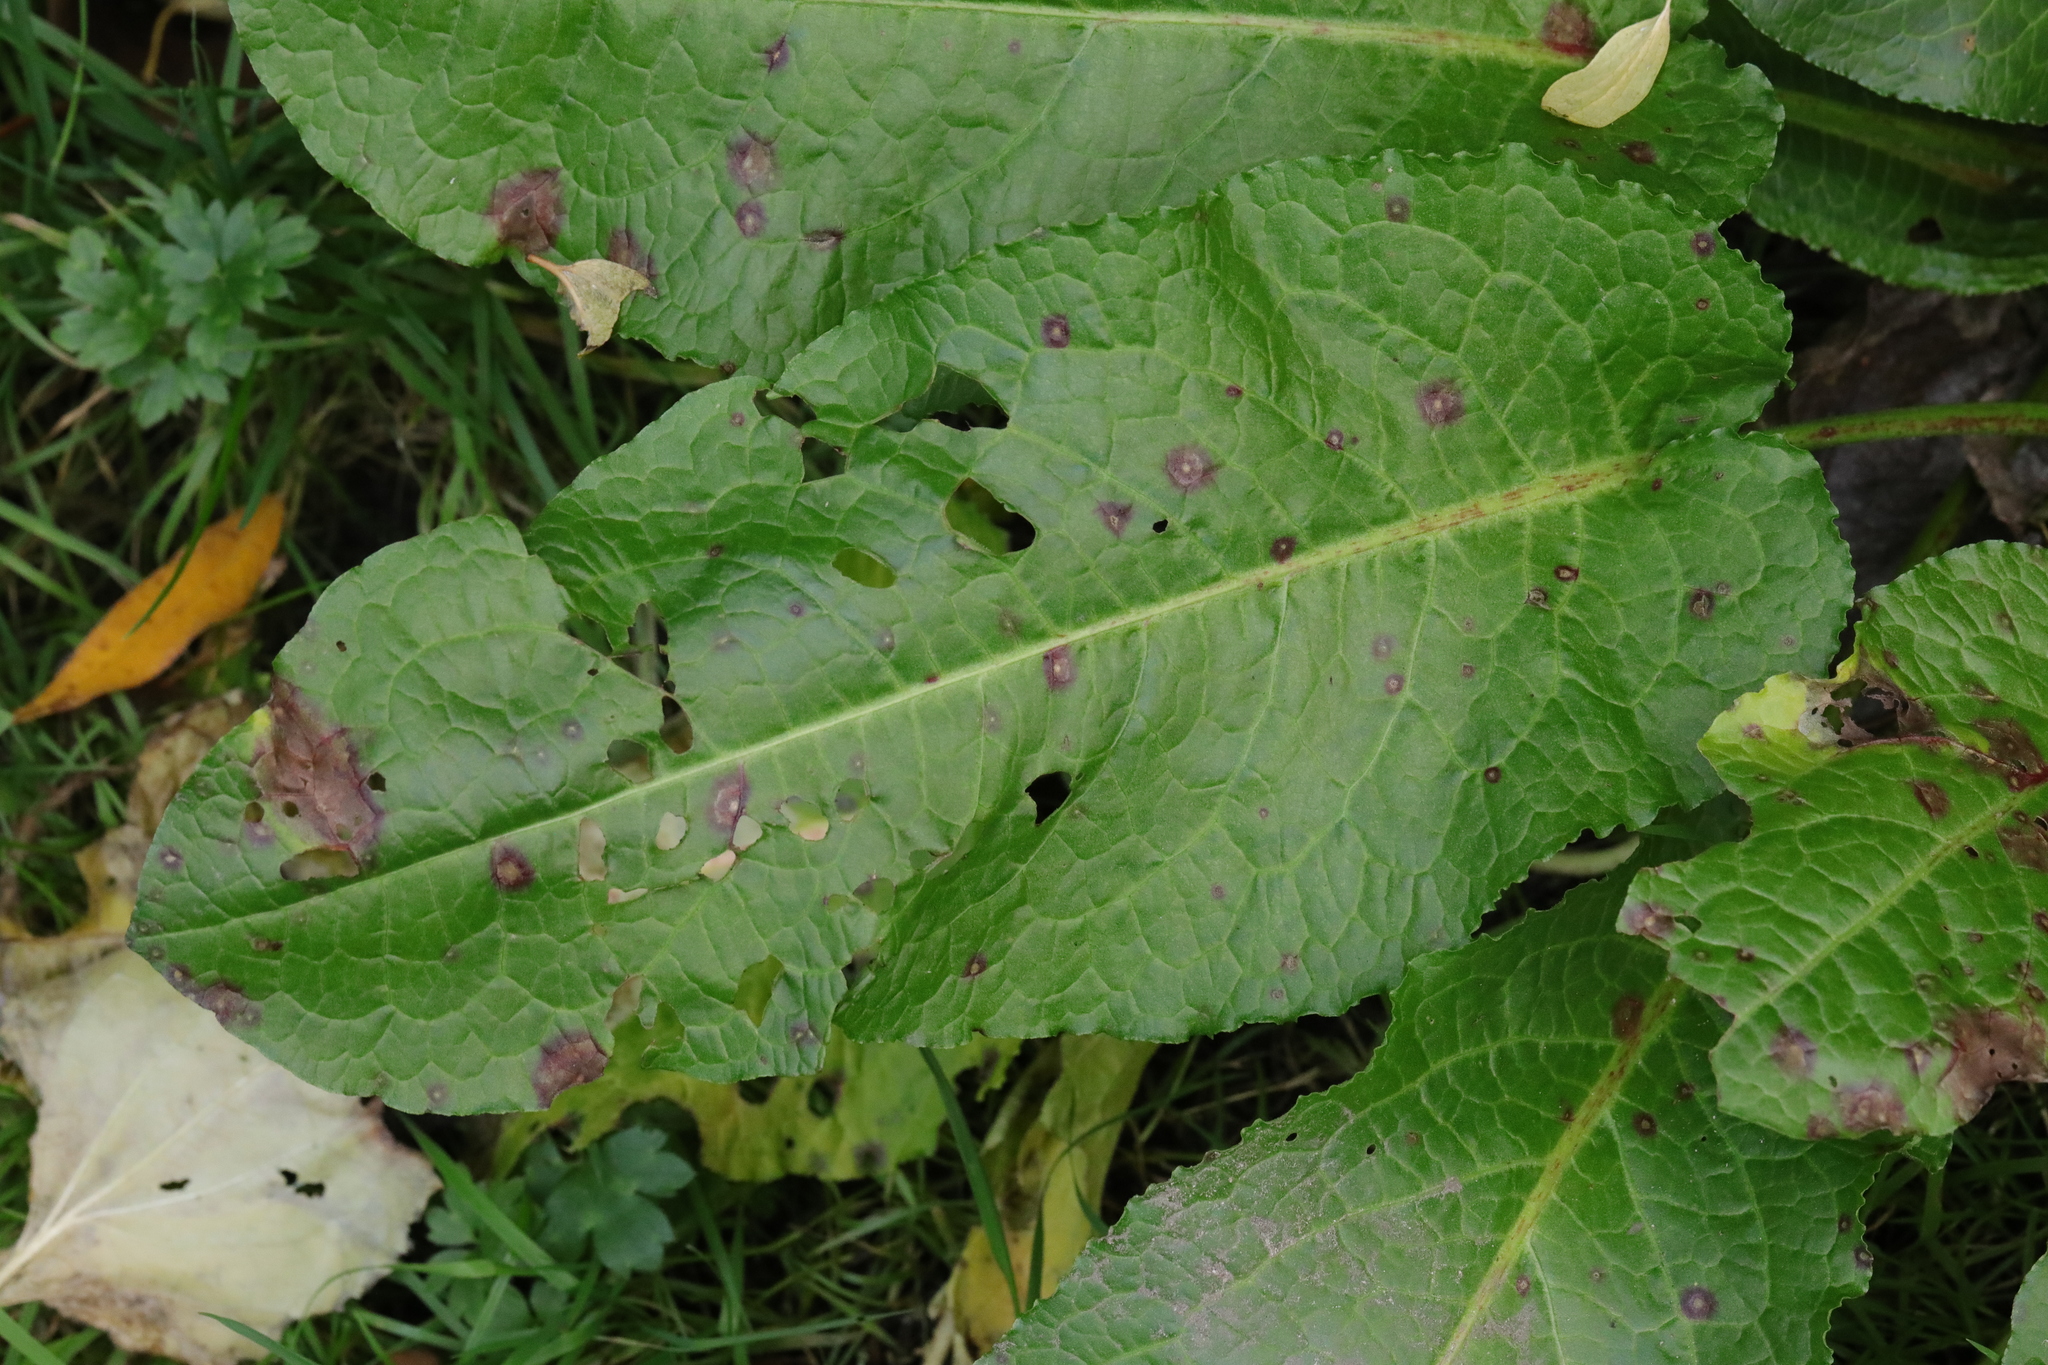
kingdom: Plantae
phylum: Tracheophyta
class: Magnoliopsida
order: Caryophyllales
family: Polygonaceae
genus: Rumex
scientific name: Rumex obtusifolius
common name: Bitter dock
